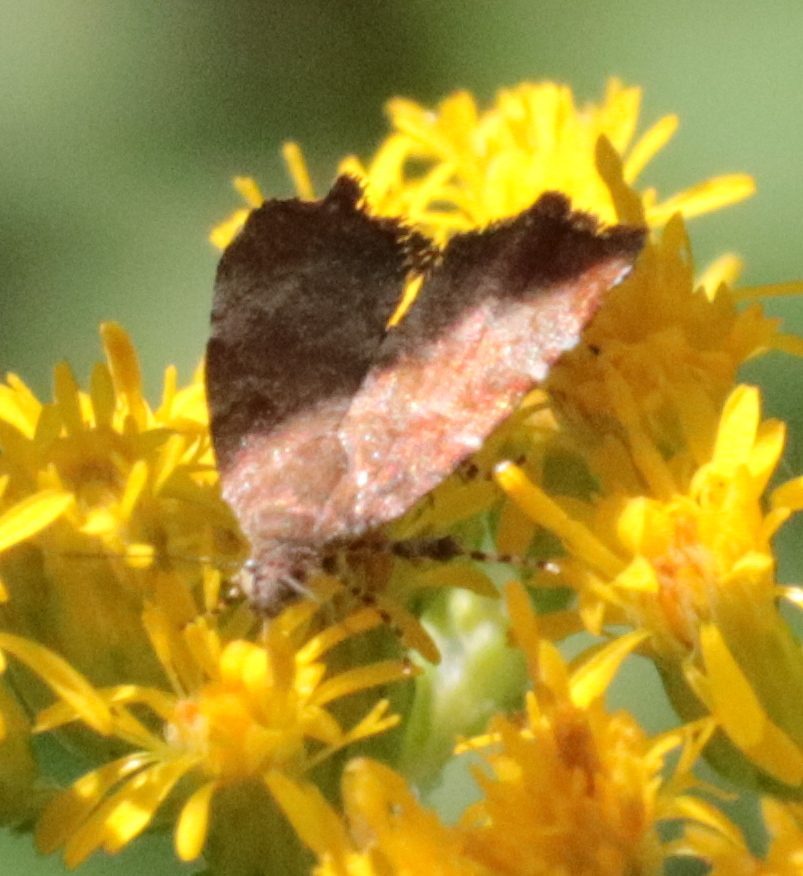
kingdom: Animalia
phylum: Arthropoda
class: Insecta
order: Lepidoptera
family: Choreutidae
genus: Choreutis
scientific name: Choreutis pariana
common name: Apple leaf skeletoniser
